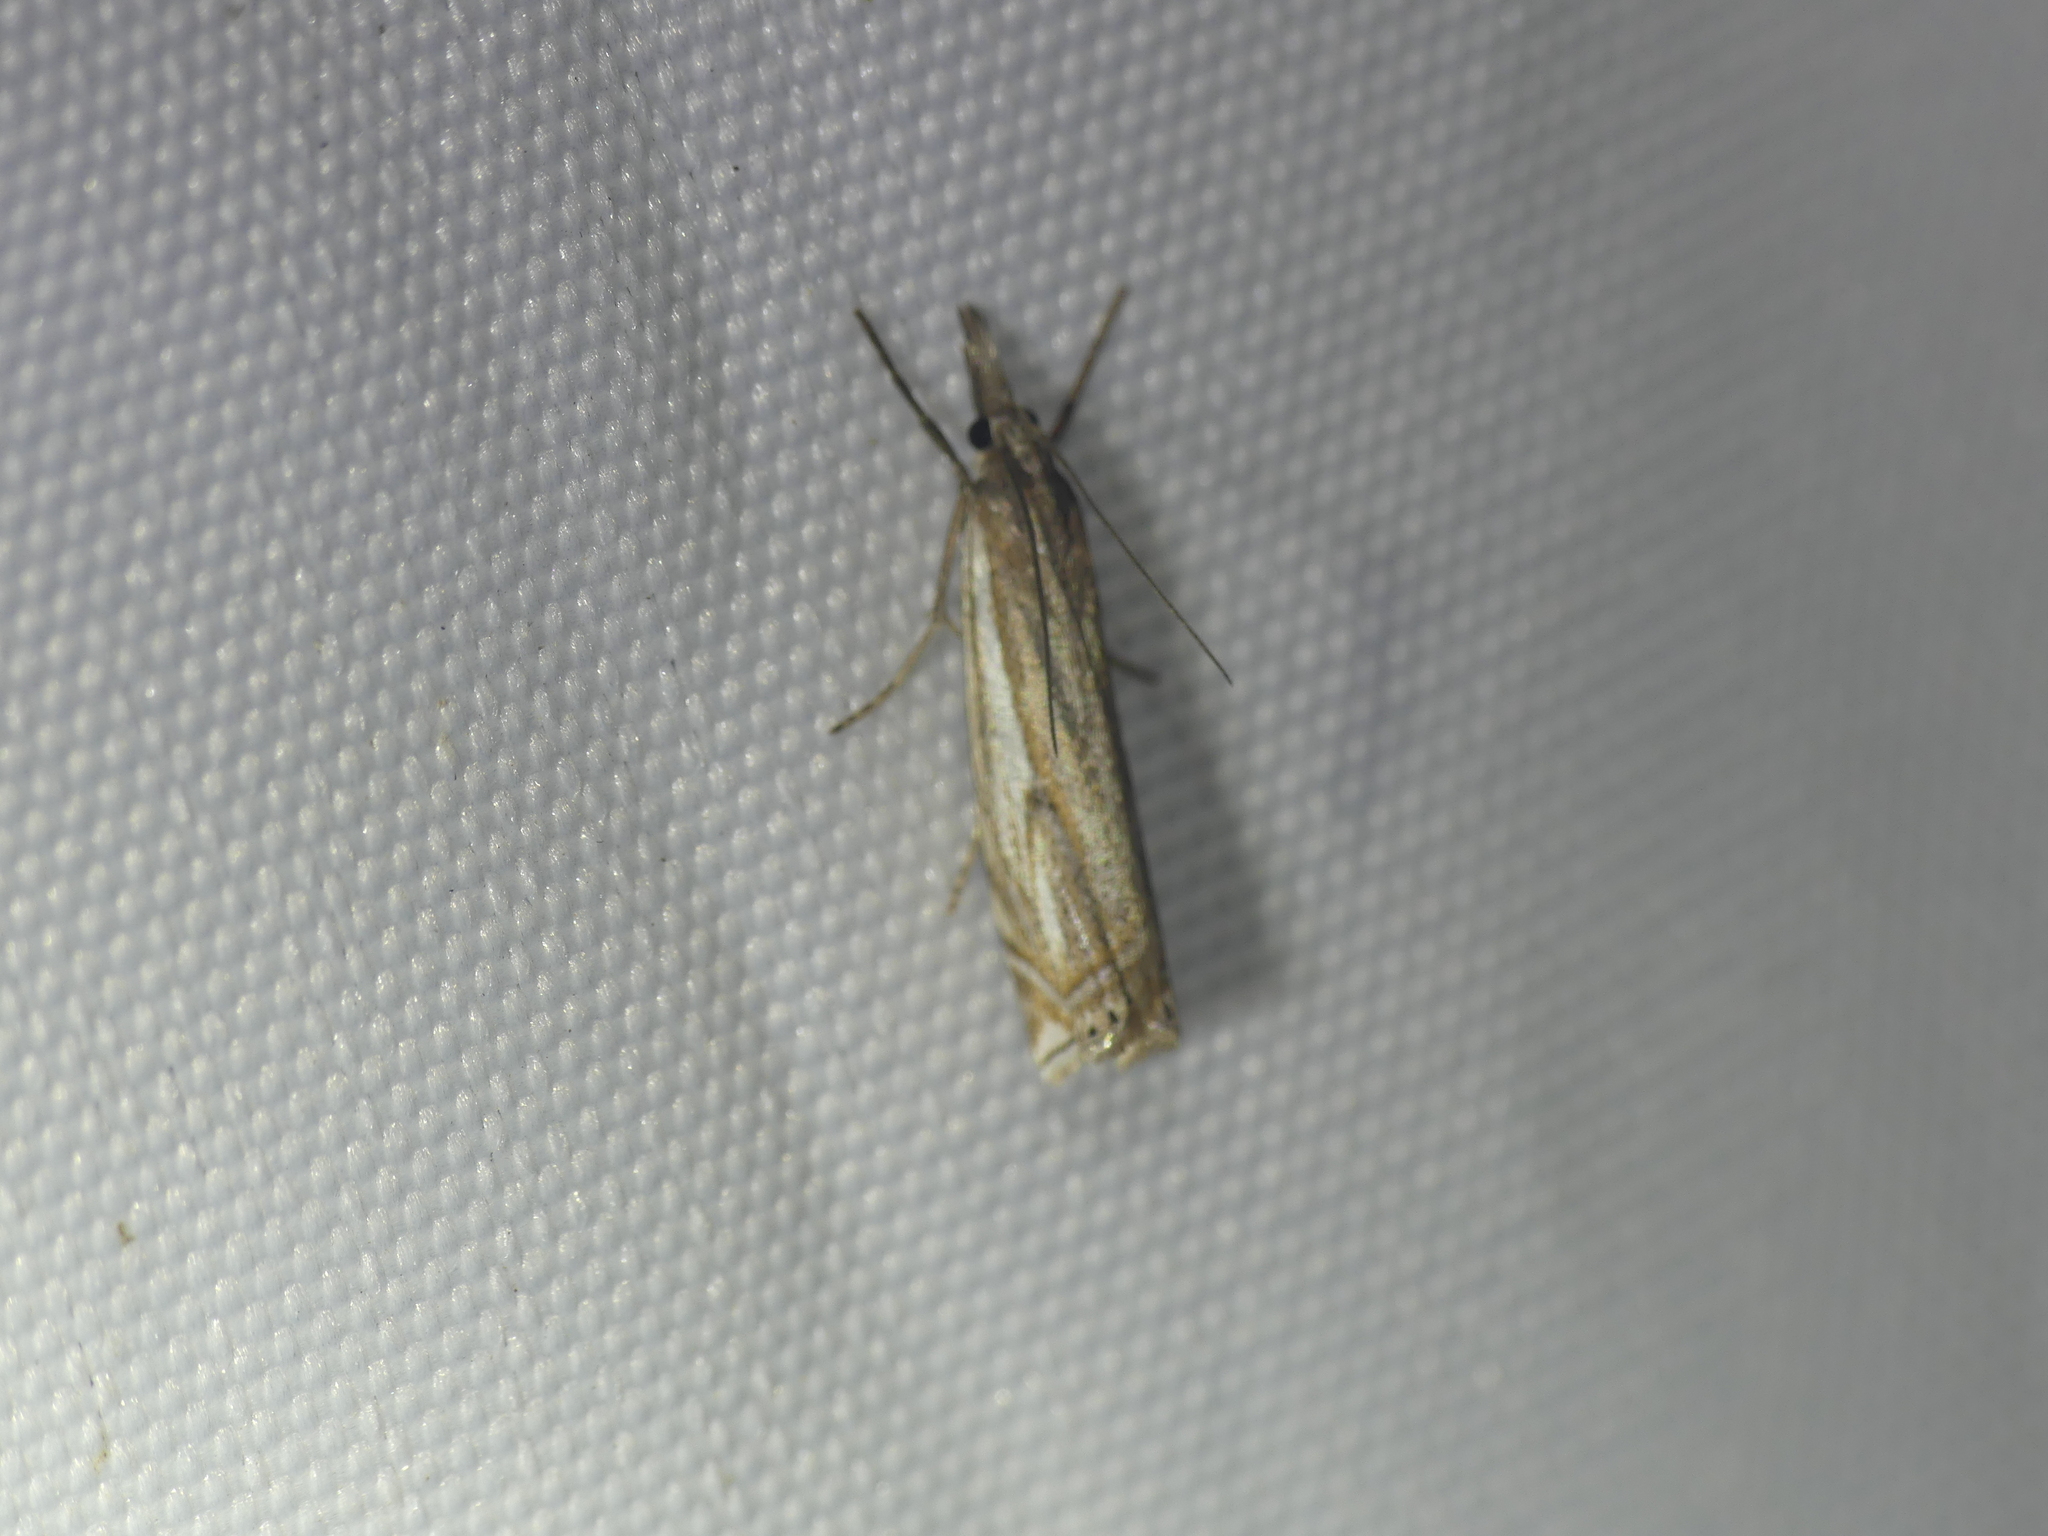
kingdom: Animalia
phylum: Arthropoda
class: Insecta
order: Lepidoptera
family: Crambidae
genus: Crambus
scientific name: Crambus nemorella
